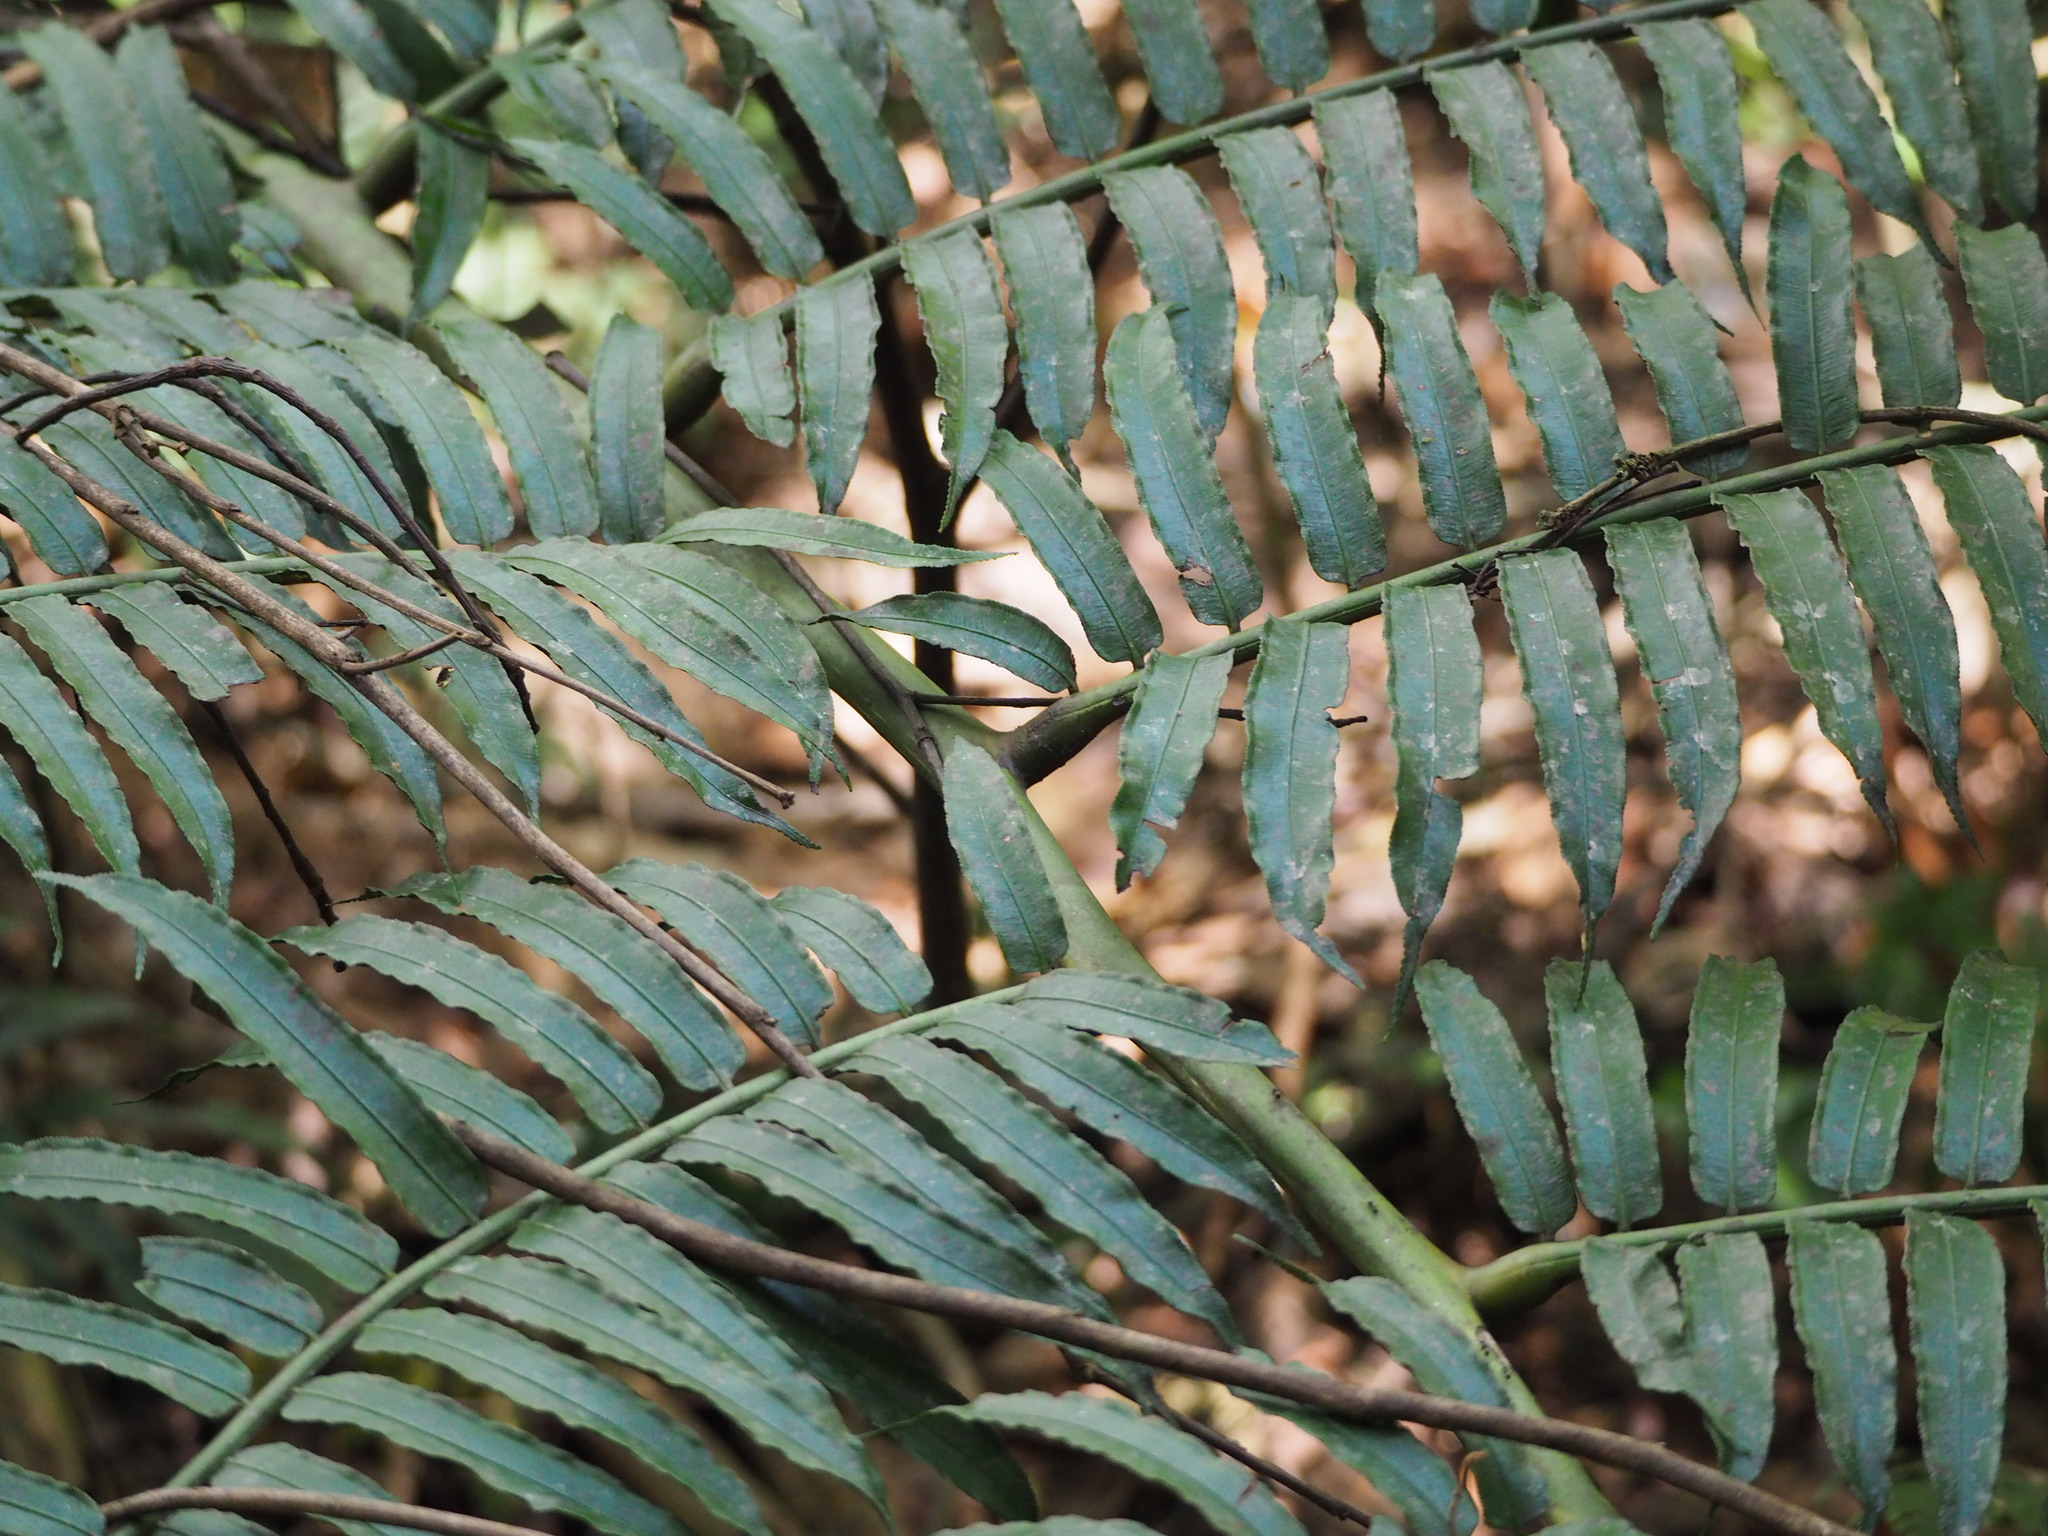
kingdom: Plantae
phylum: Tracheophyta
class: Polypodiopsida
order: Marattiales
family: Marattiaceae
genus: Angiopteris
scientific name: Angiopteris lygodiifolia
